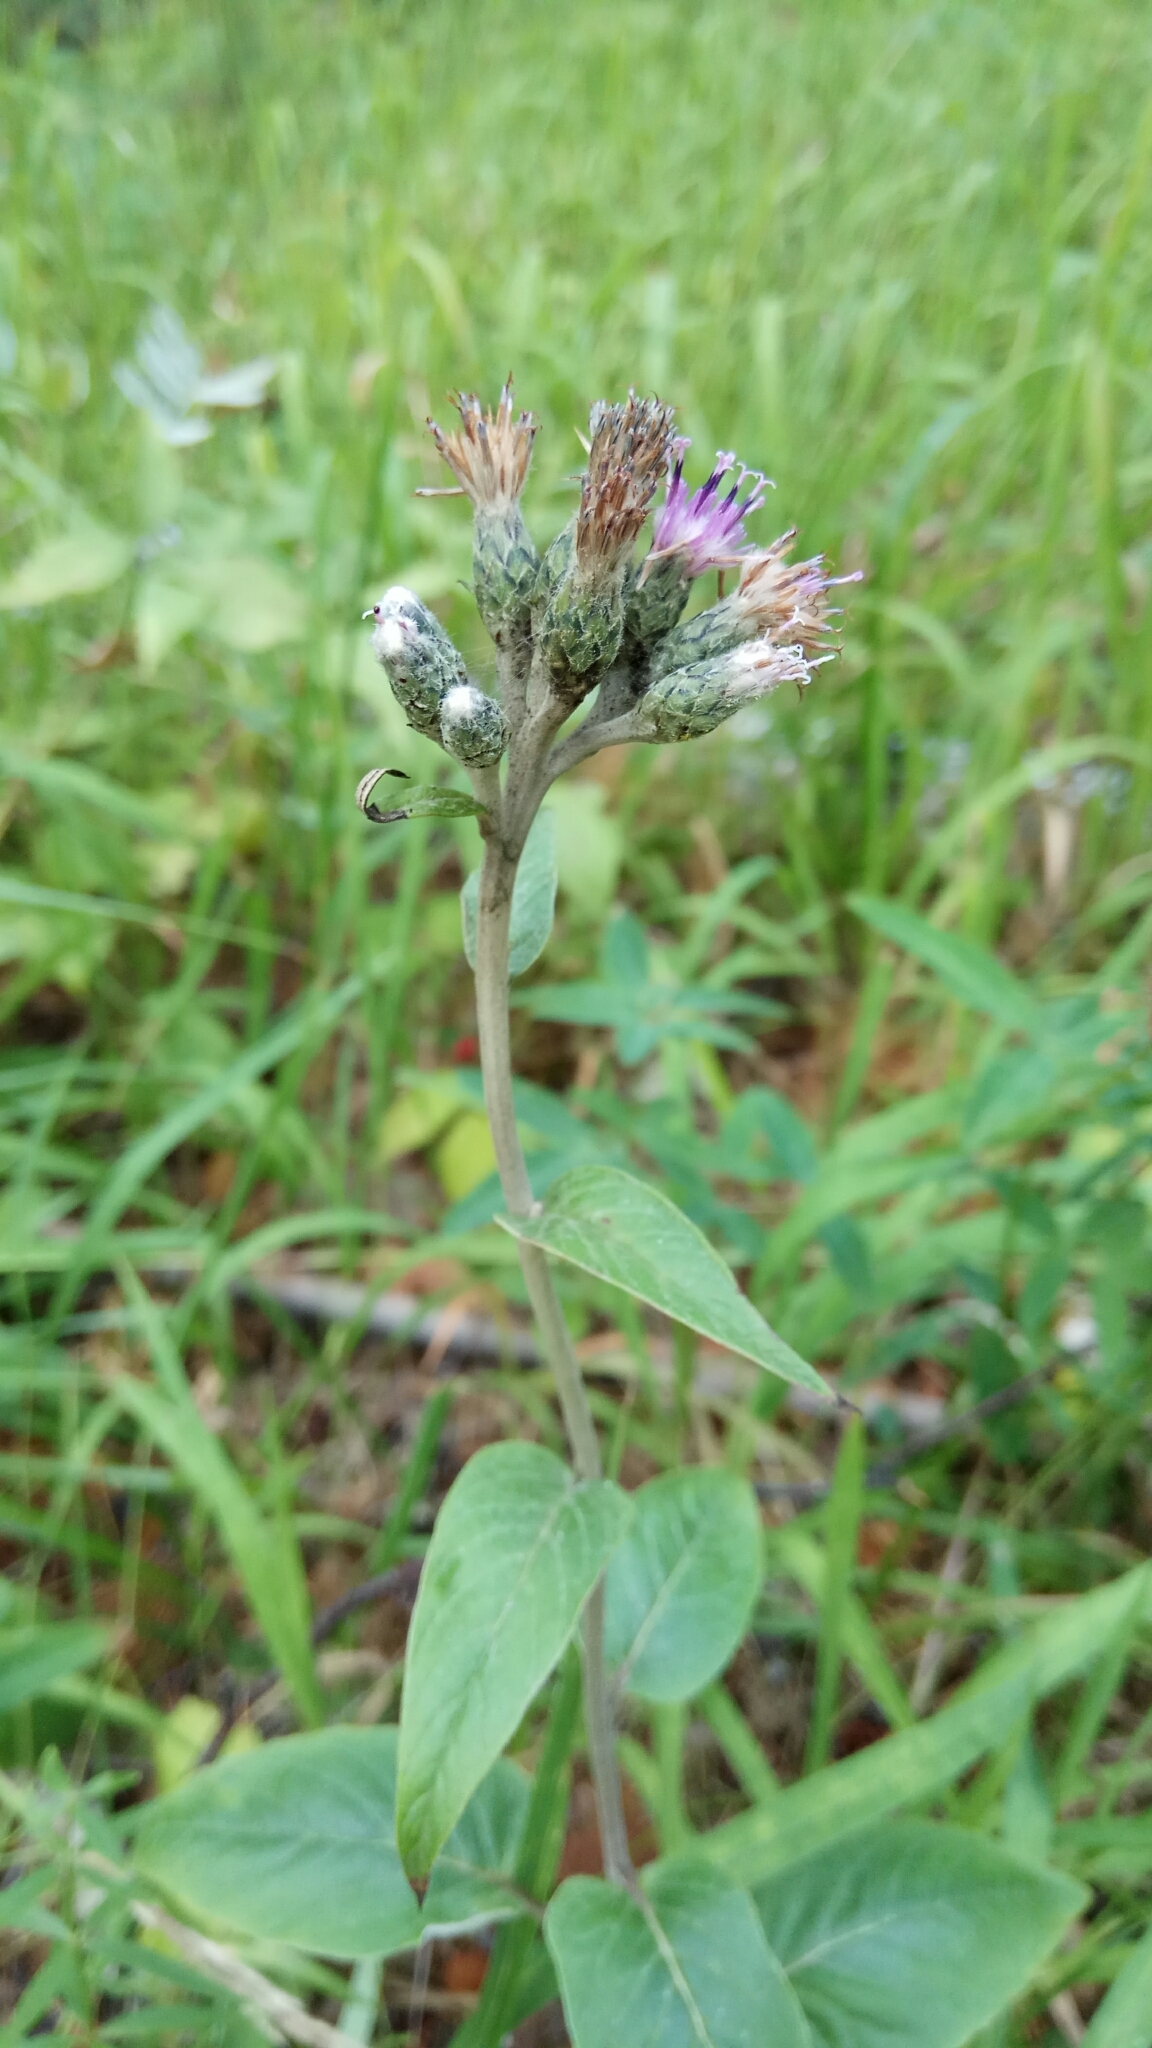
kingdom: Plantae
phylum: Tracheophyta
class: Magnoliopsida
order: Asterales
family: Asteraceae
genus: Saussurea
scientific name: Saussurea controversa
